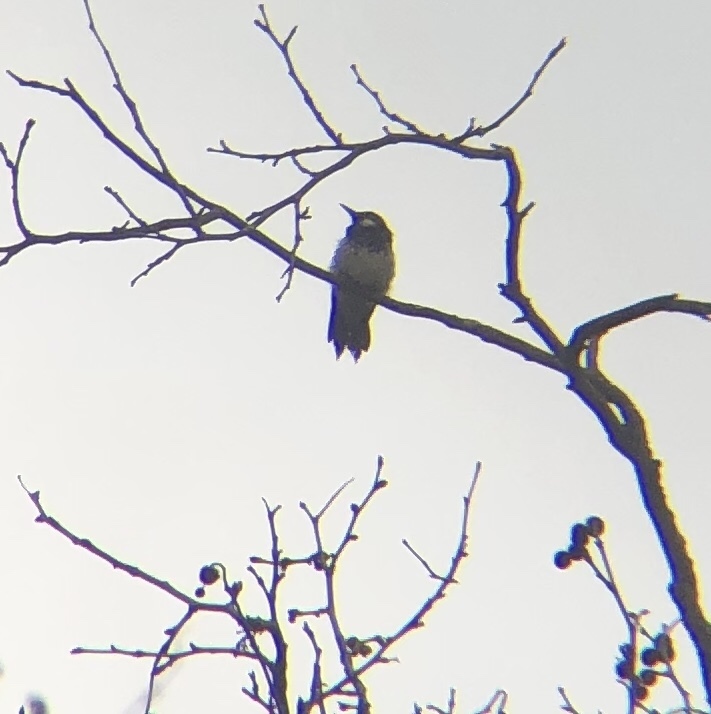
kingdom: Animalia
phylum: Chordata
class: Aves
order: Piciformes
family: Picidae
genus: Melanerpes
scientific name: Melanerpes formicivorus
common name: Acorn woodpecker
